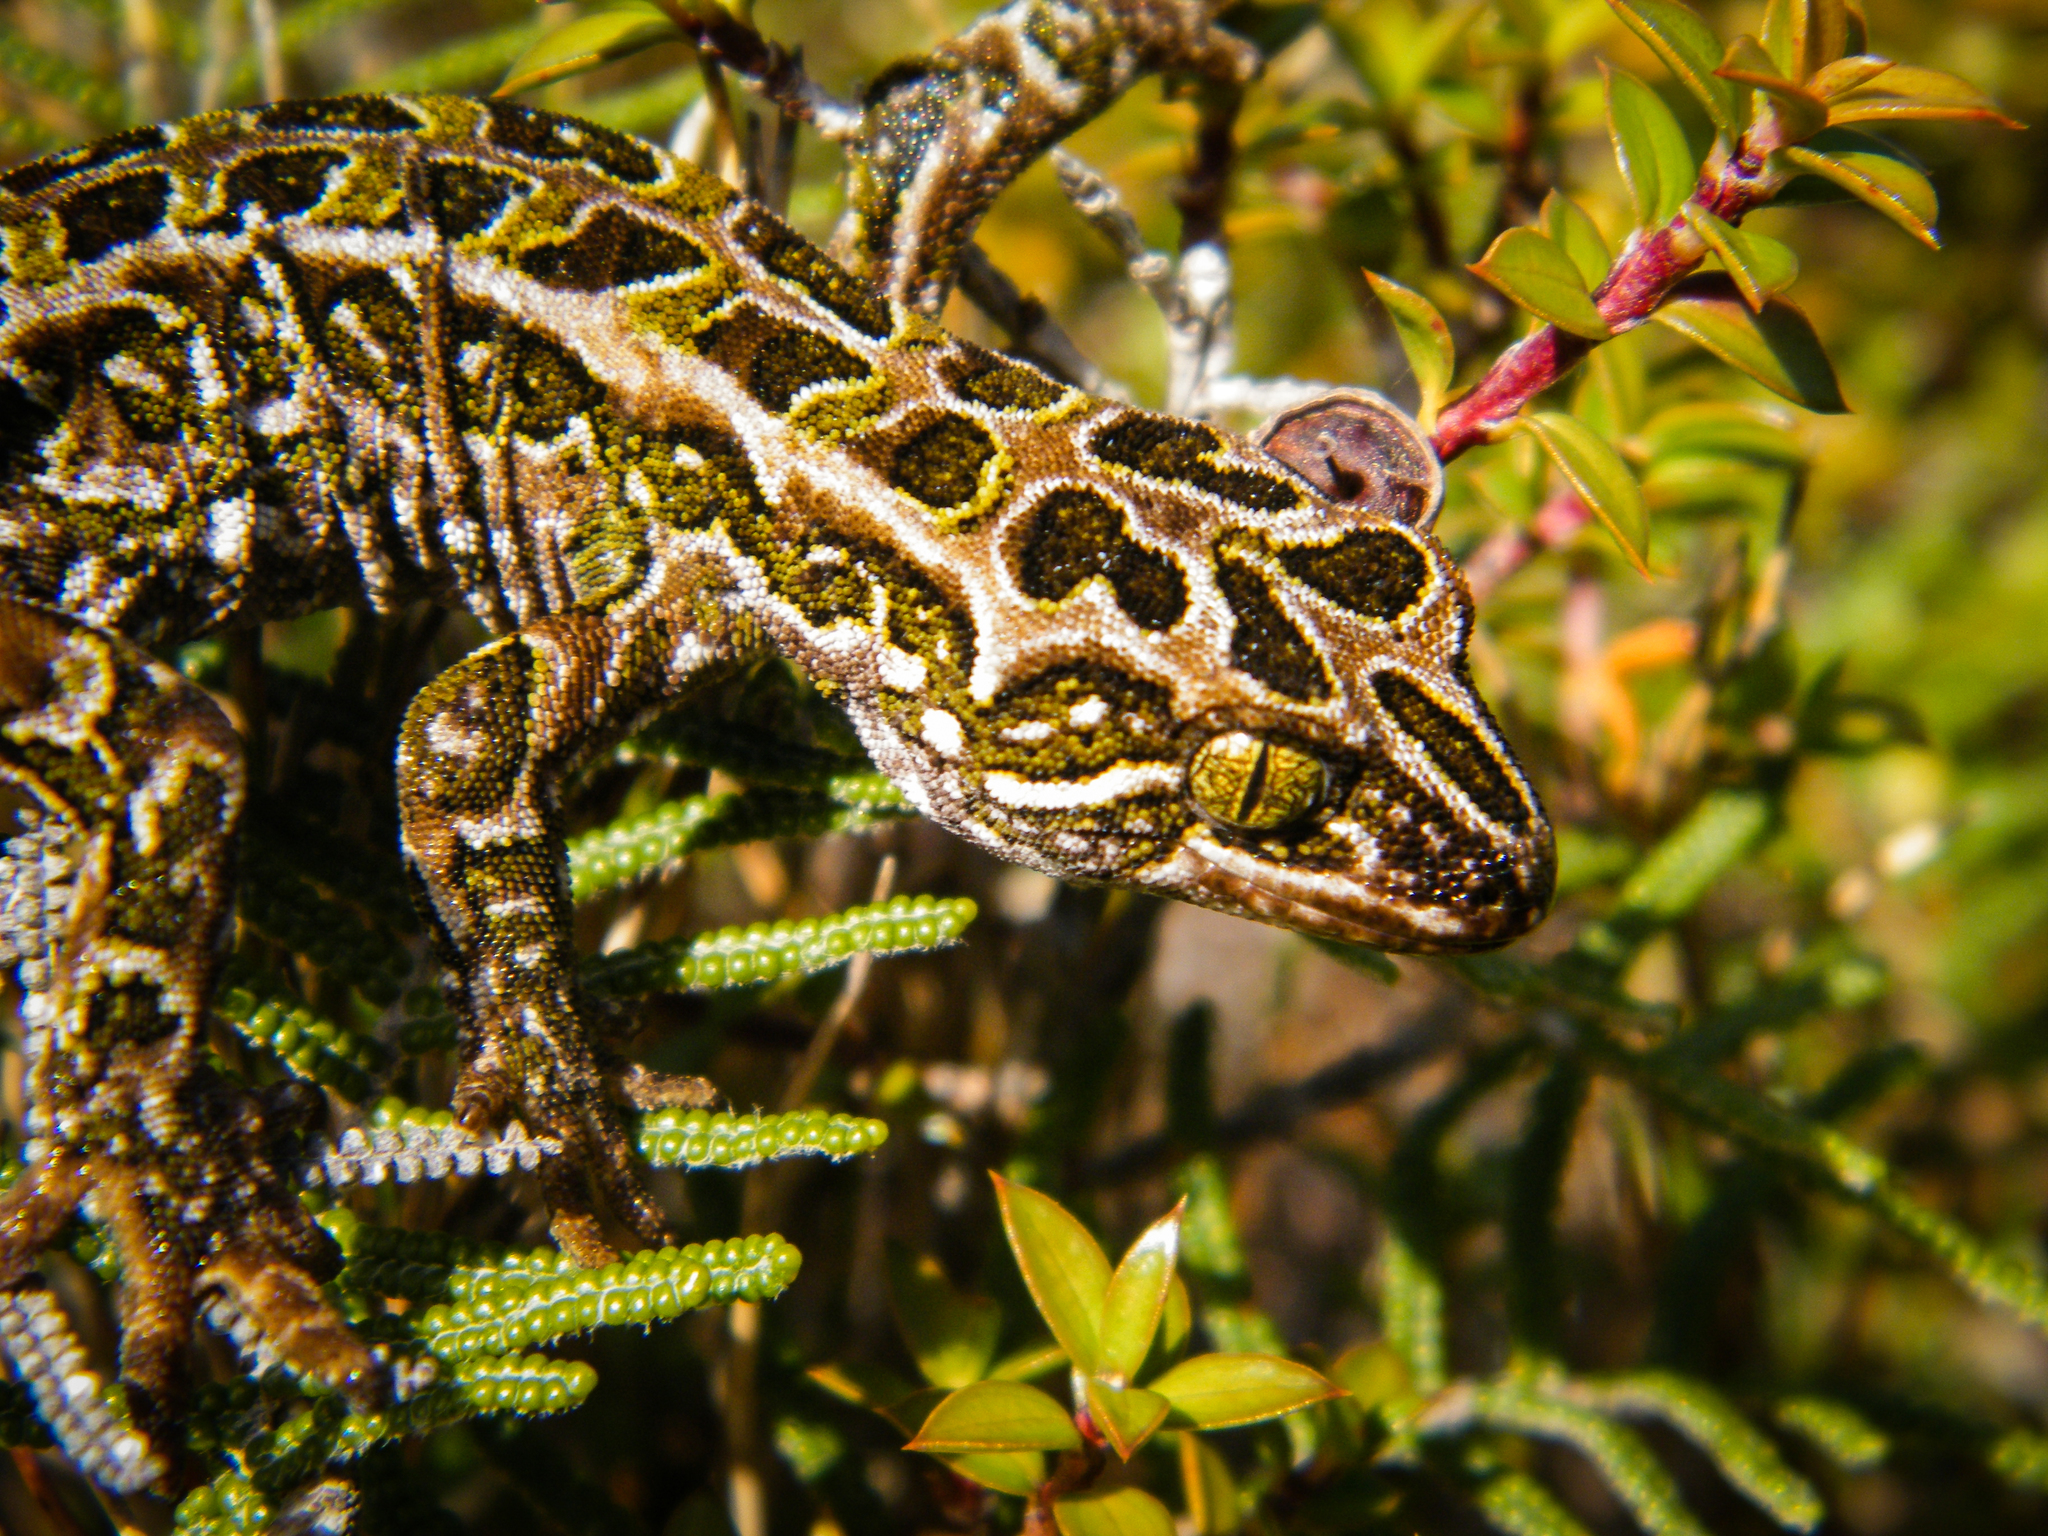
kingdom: Animalia
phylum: Chordata
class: Squamata
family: Diplodactylidae
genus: Tukutuku
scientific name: Tukutuku rakiurae
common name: Harlequin gecko
